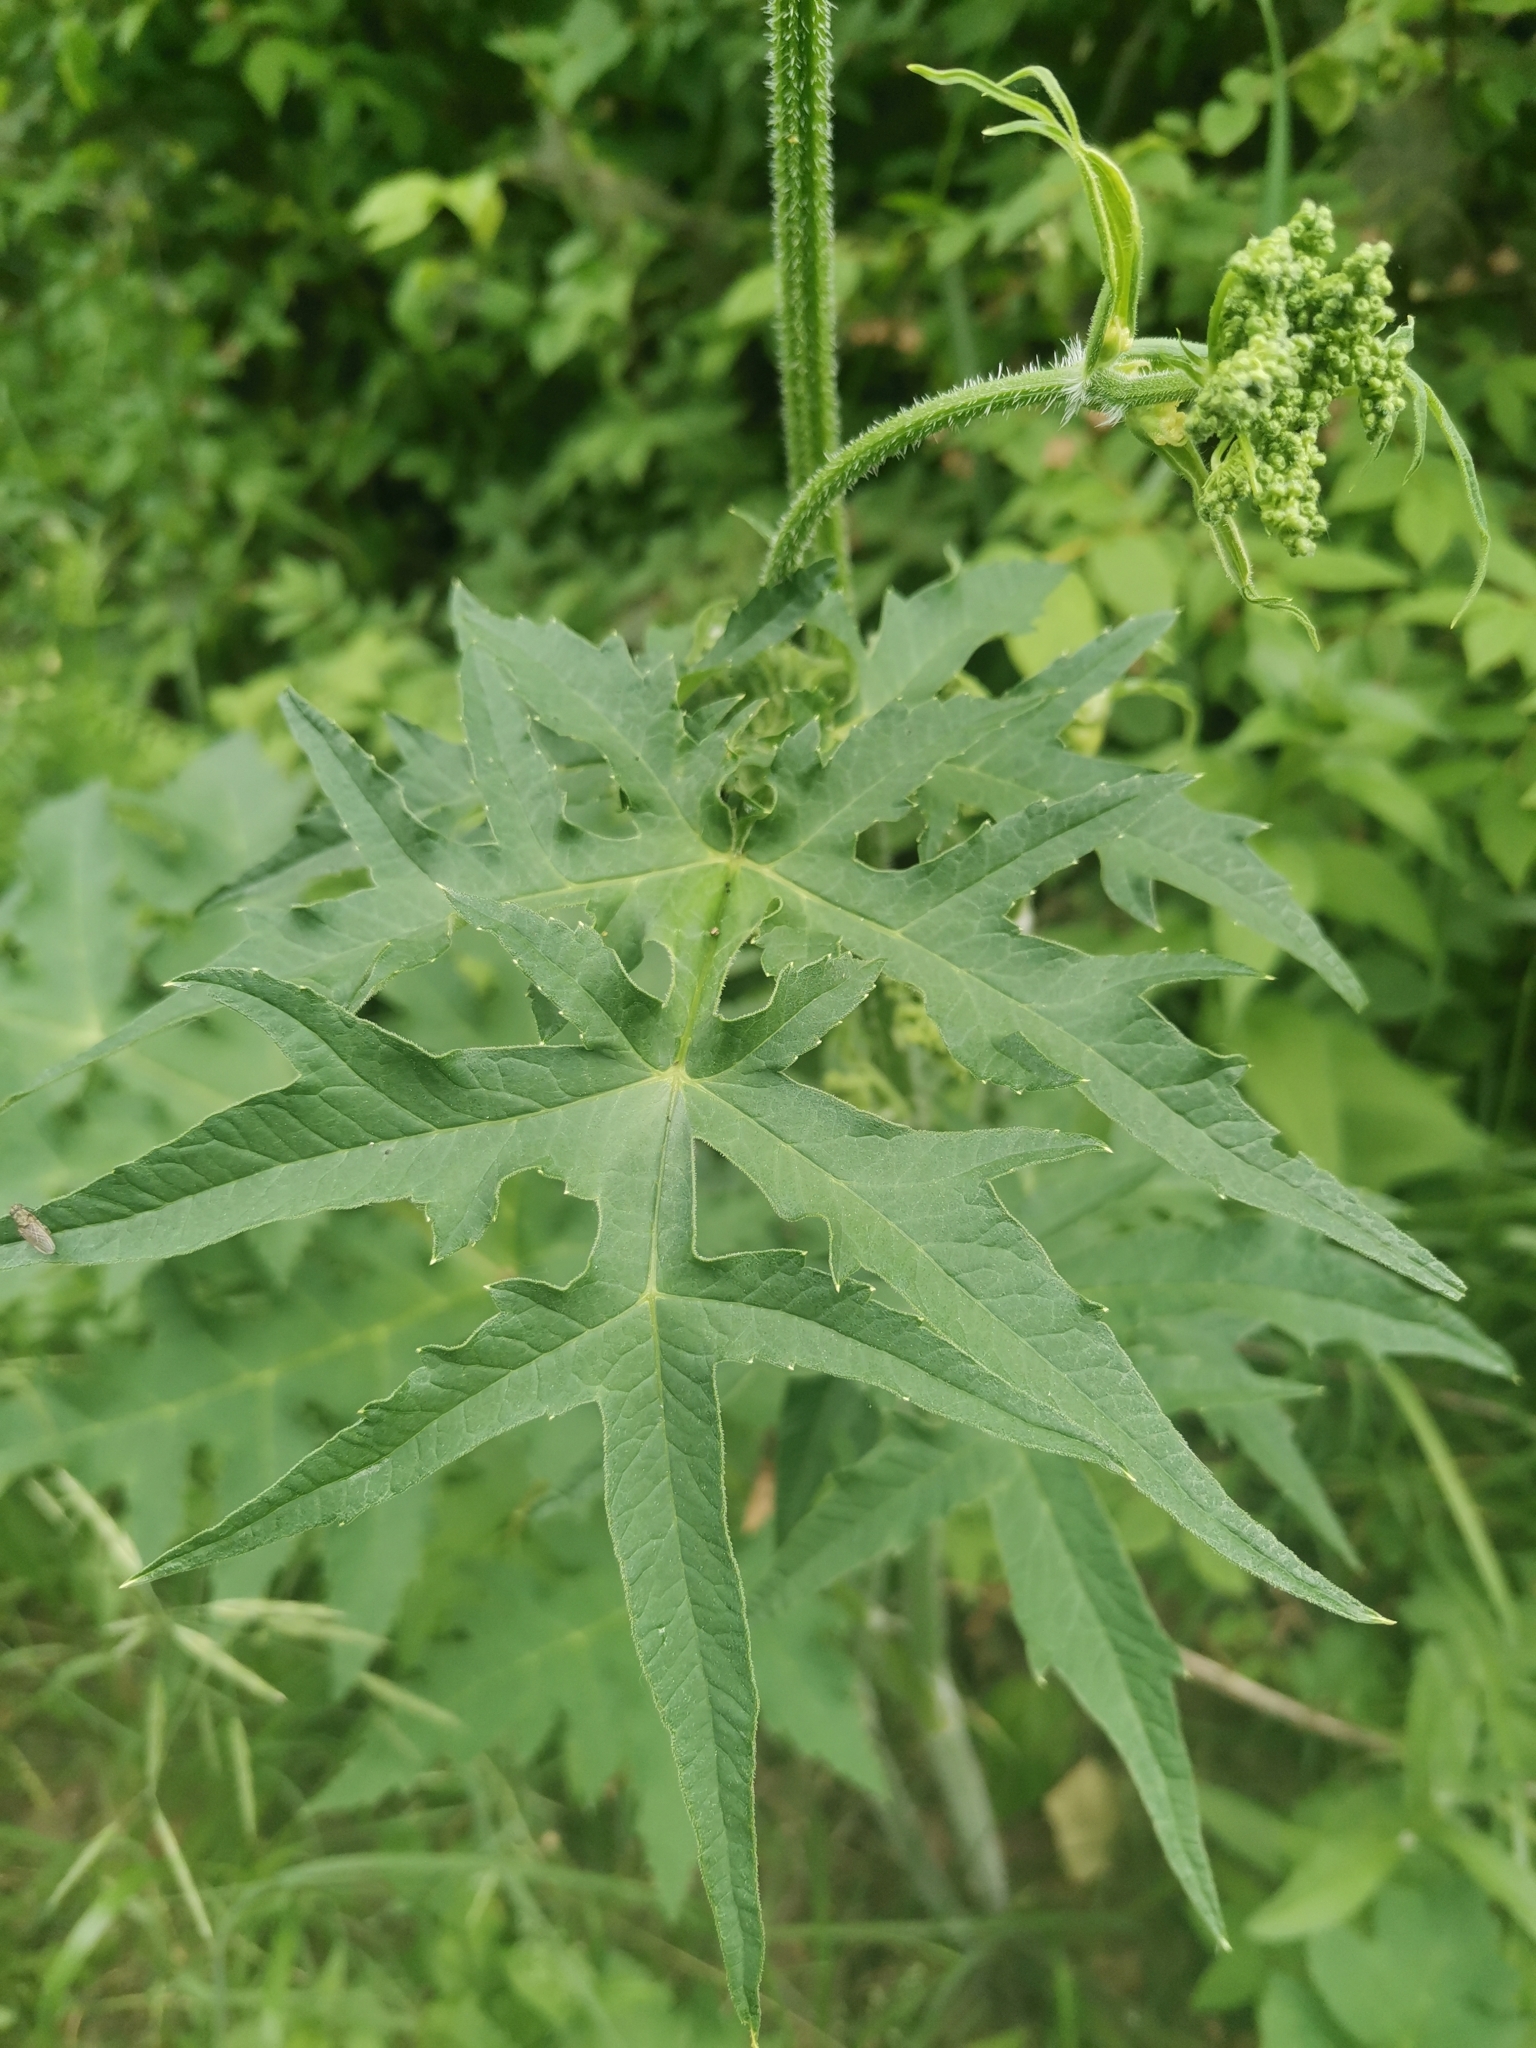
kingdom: Plantae
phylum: Tracheophyta
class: Magnoliopsida
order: Apiales
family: Apiaceae
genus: Heracleum
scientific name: Heracleum sphondylium
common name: Hogweed
